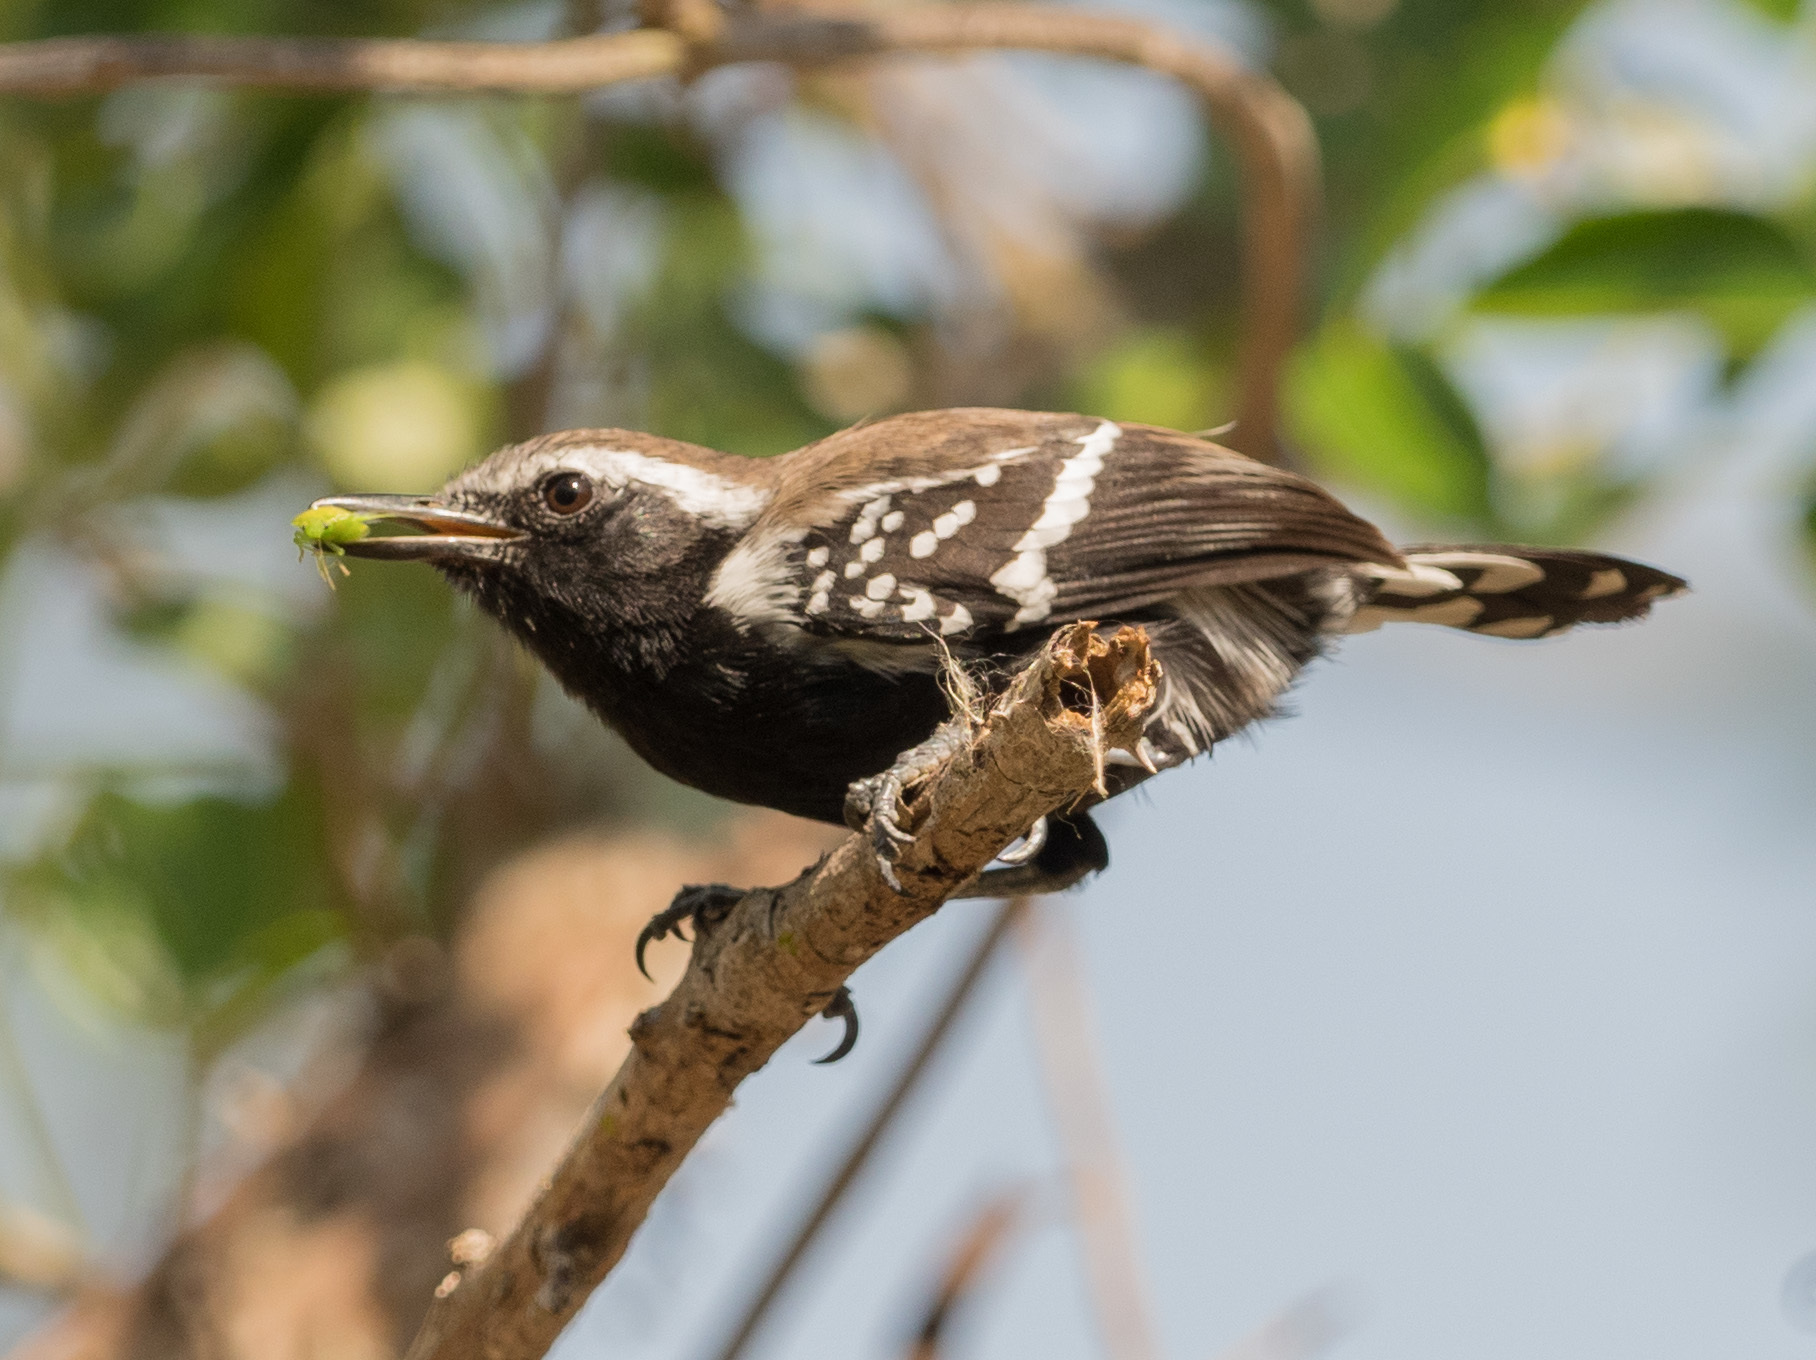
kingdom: Animalia
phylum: Chordata
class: Aves
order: Passeriformes
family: Thamnophilidae
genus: Formicivora
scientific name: Formicivora intermedia
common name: Northern white-fringed antwren
